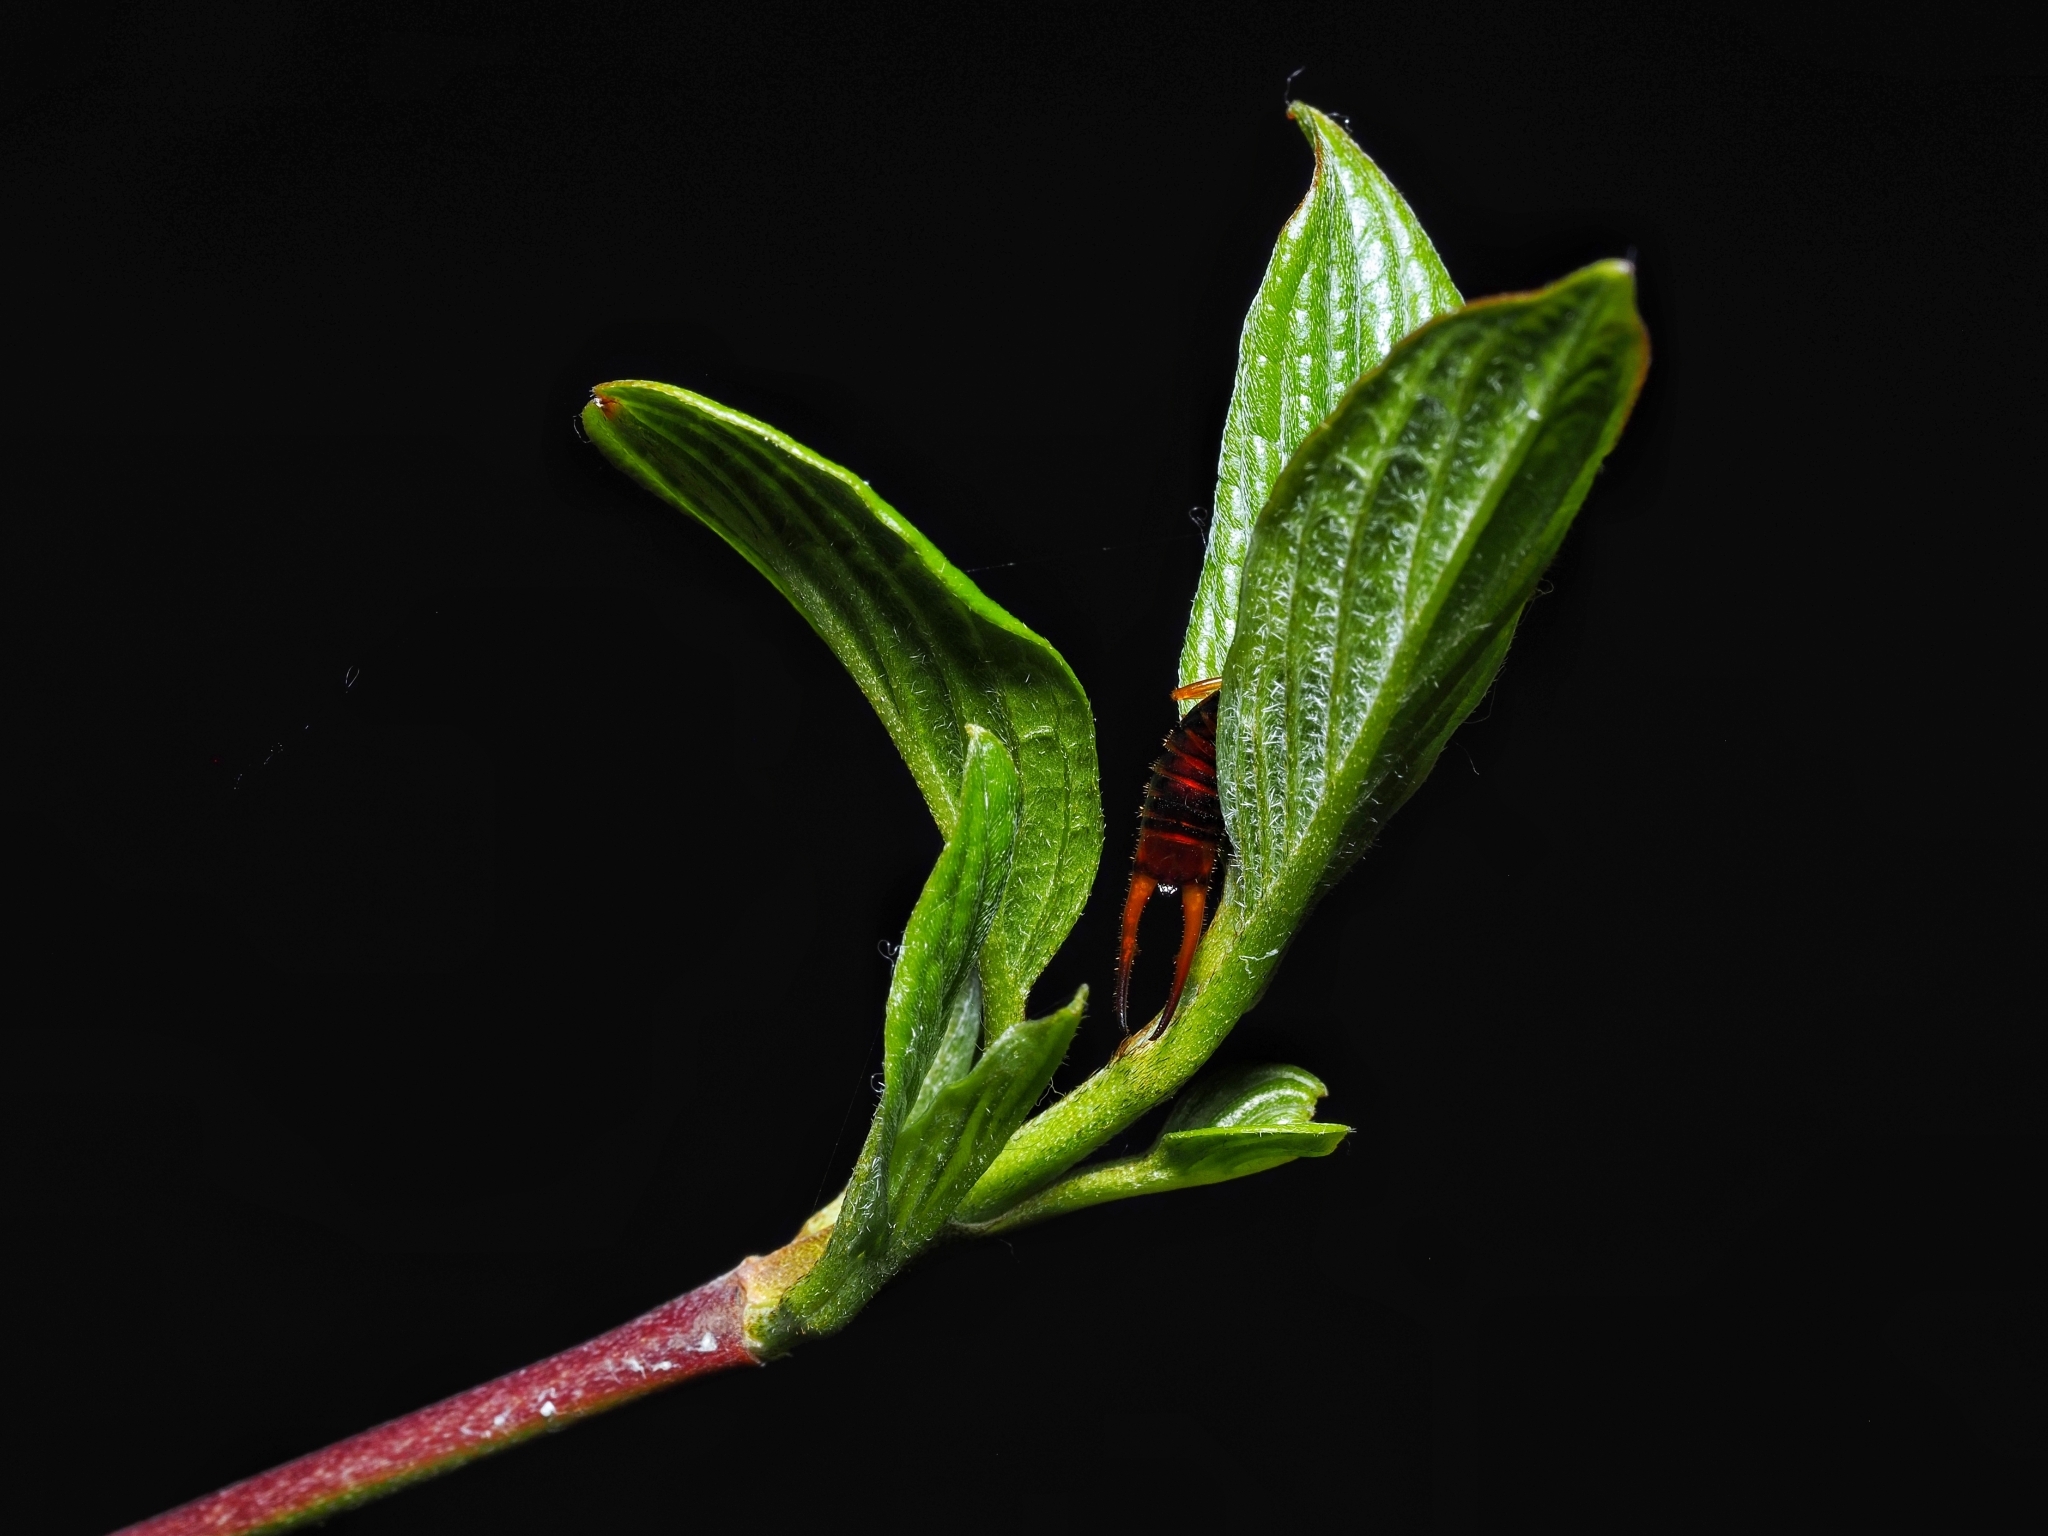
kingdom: Animalia
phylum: Arthropoda
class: Insecta
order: Dermaptera
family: Forficulidae
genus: Apterygida
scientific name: Apterygida albipennis
